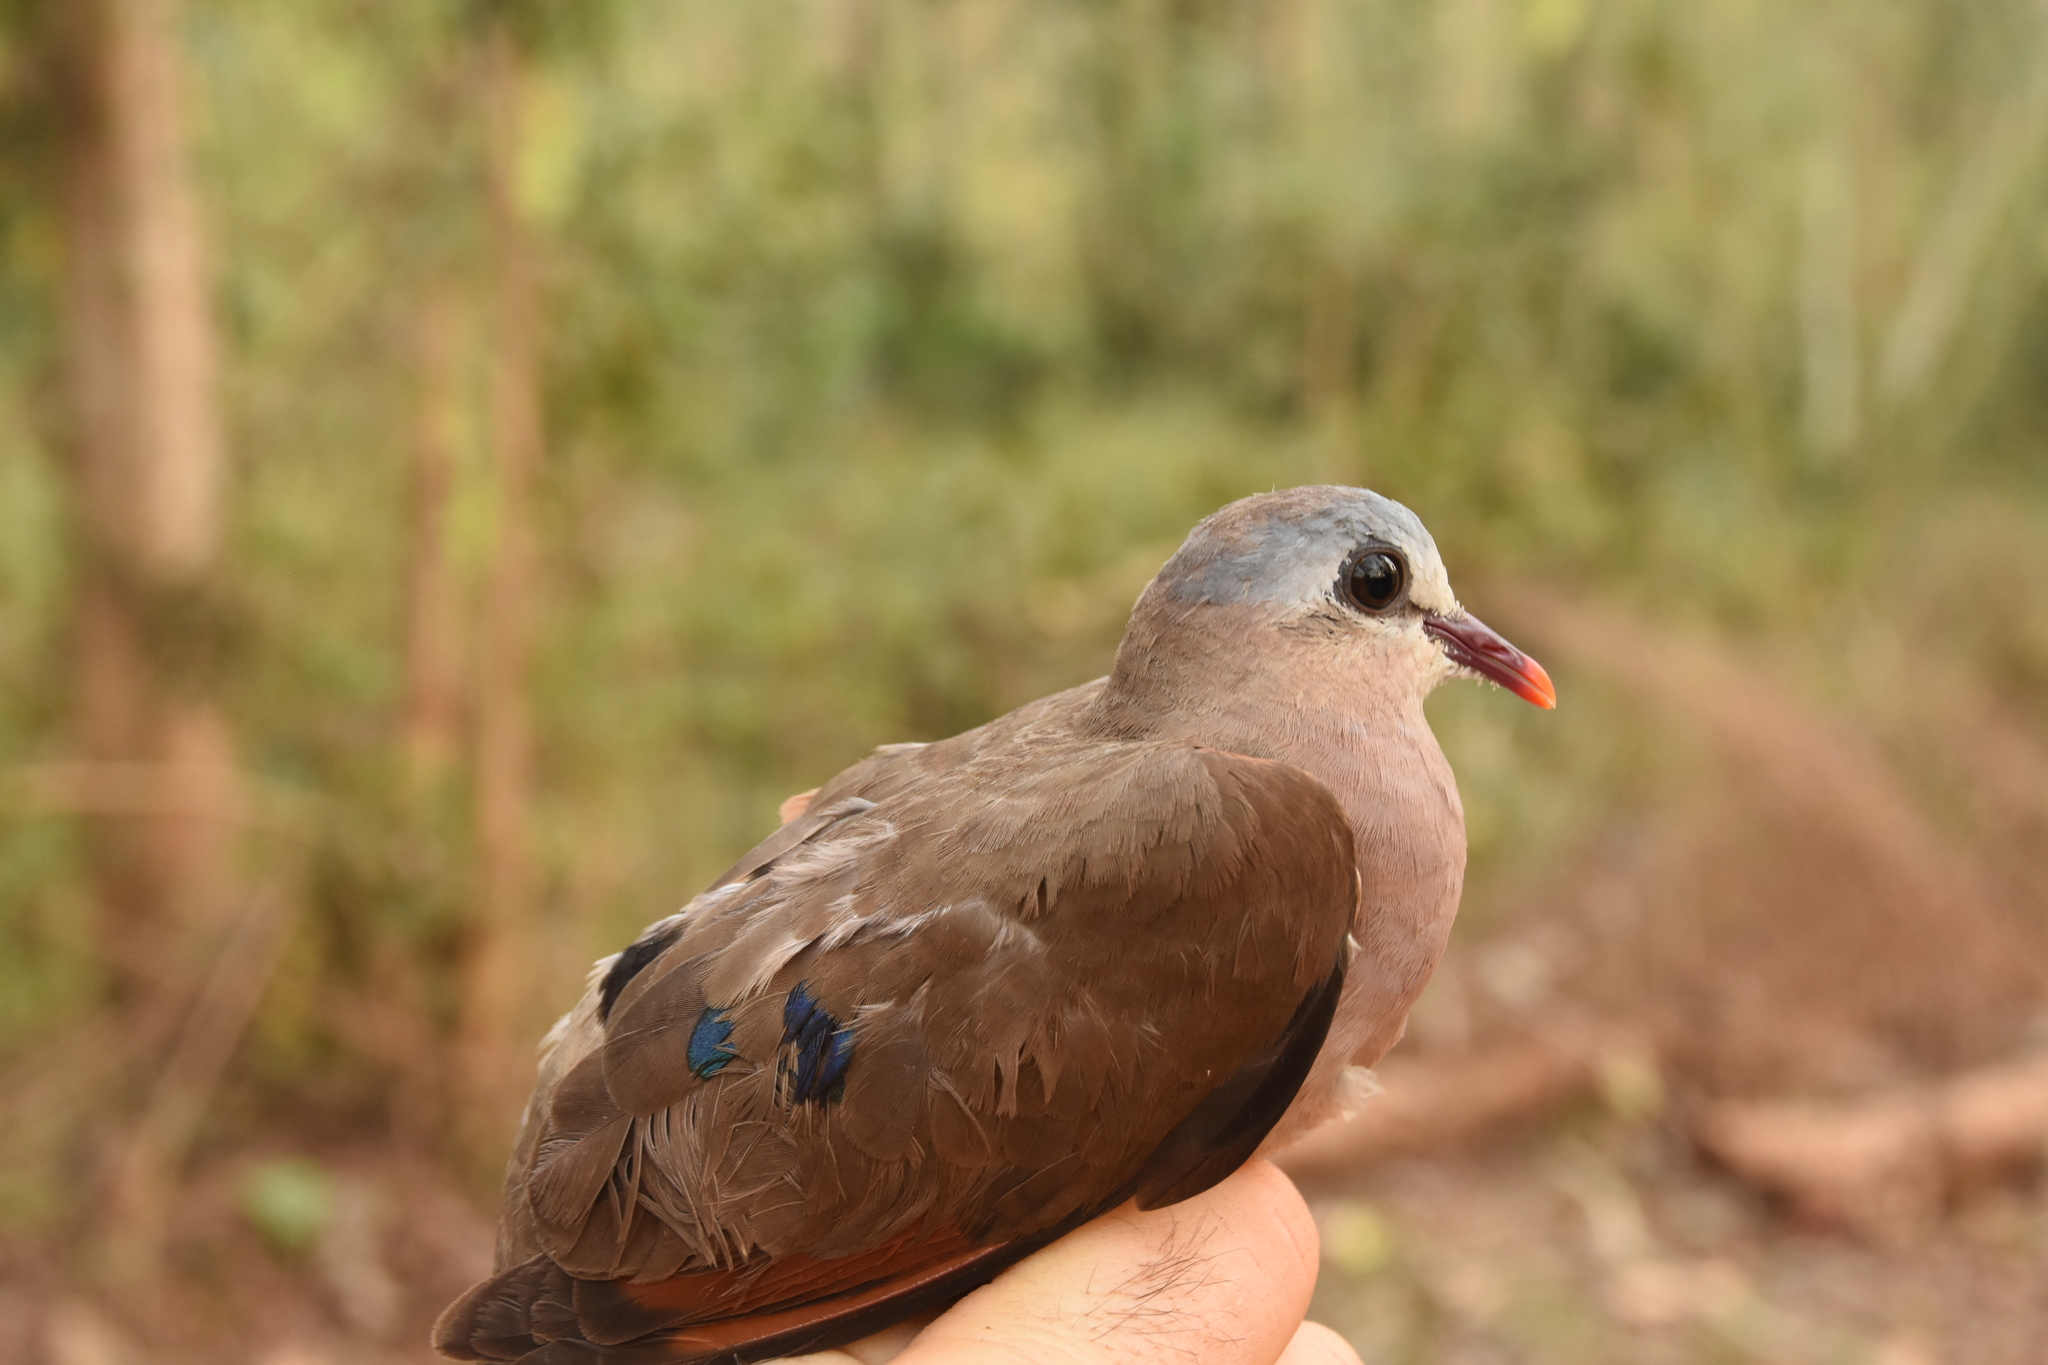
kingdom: Animalia
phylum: Chordata
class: Aves
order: Columbiformes
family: Columbidae
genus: Turtur
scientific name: Turtur afer
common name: Blue-spotted wood dove
